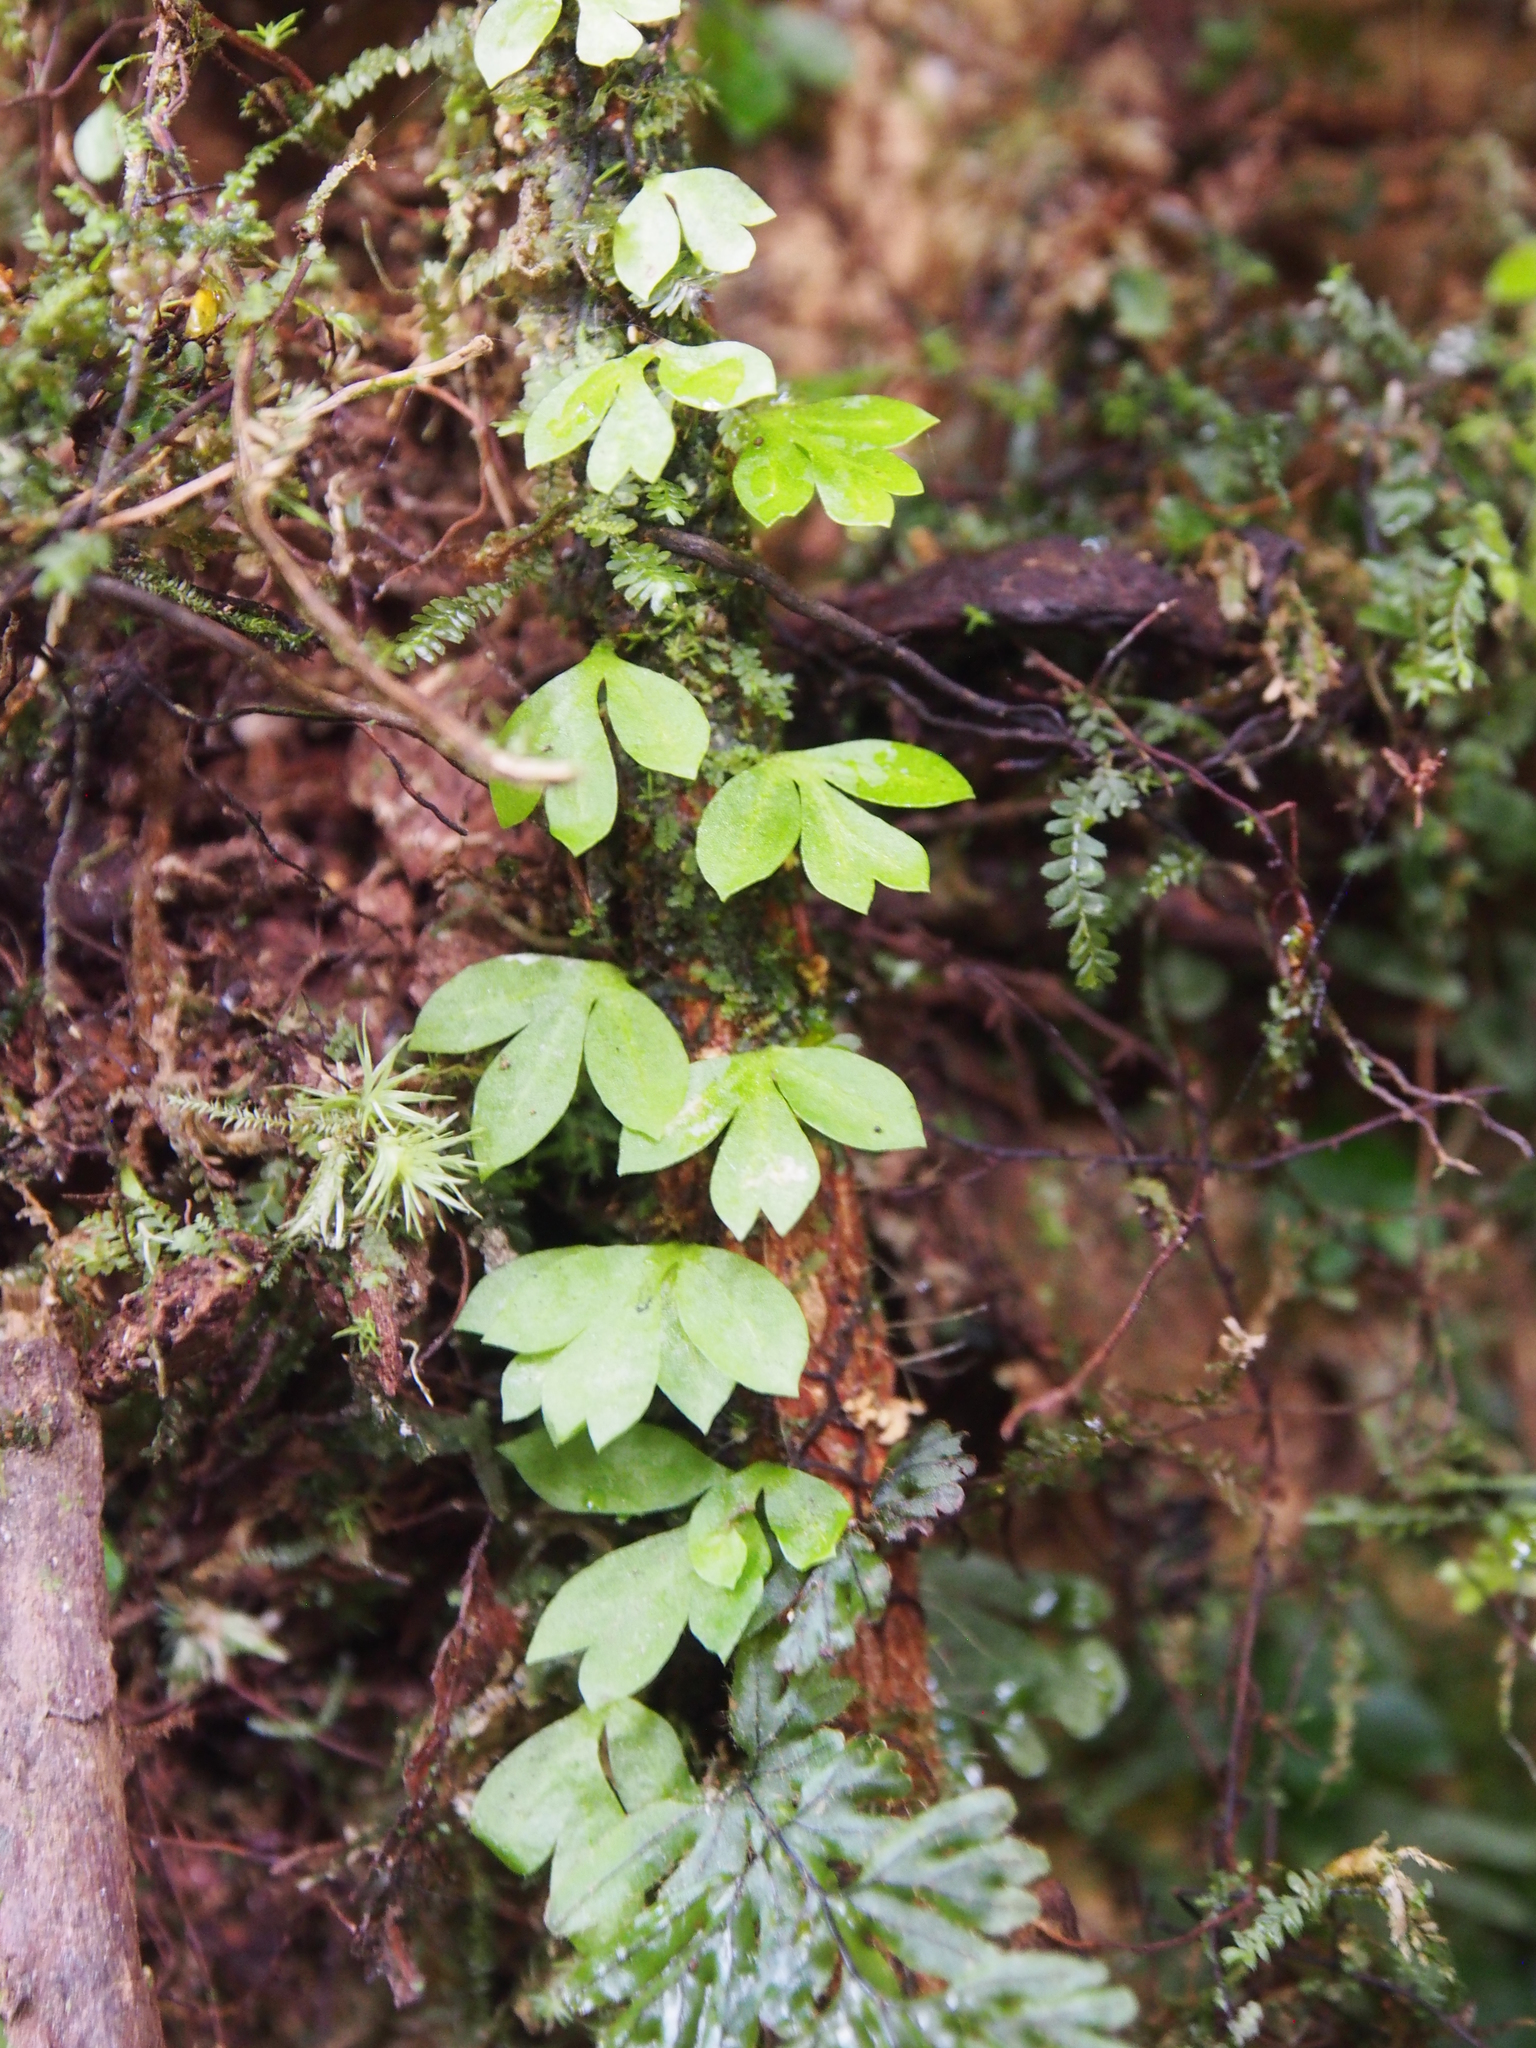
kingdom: Plantae
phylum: Tracheophyta
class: Polypodiopsida
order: Polypodiales
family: Aspleniaceae
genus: Asplenium
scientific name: Asplenium holophlebium
